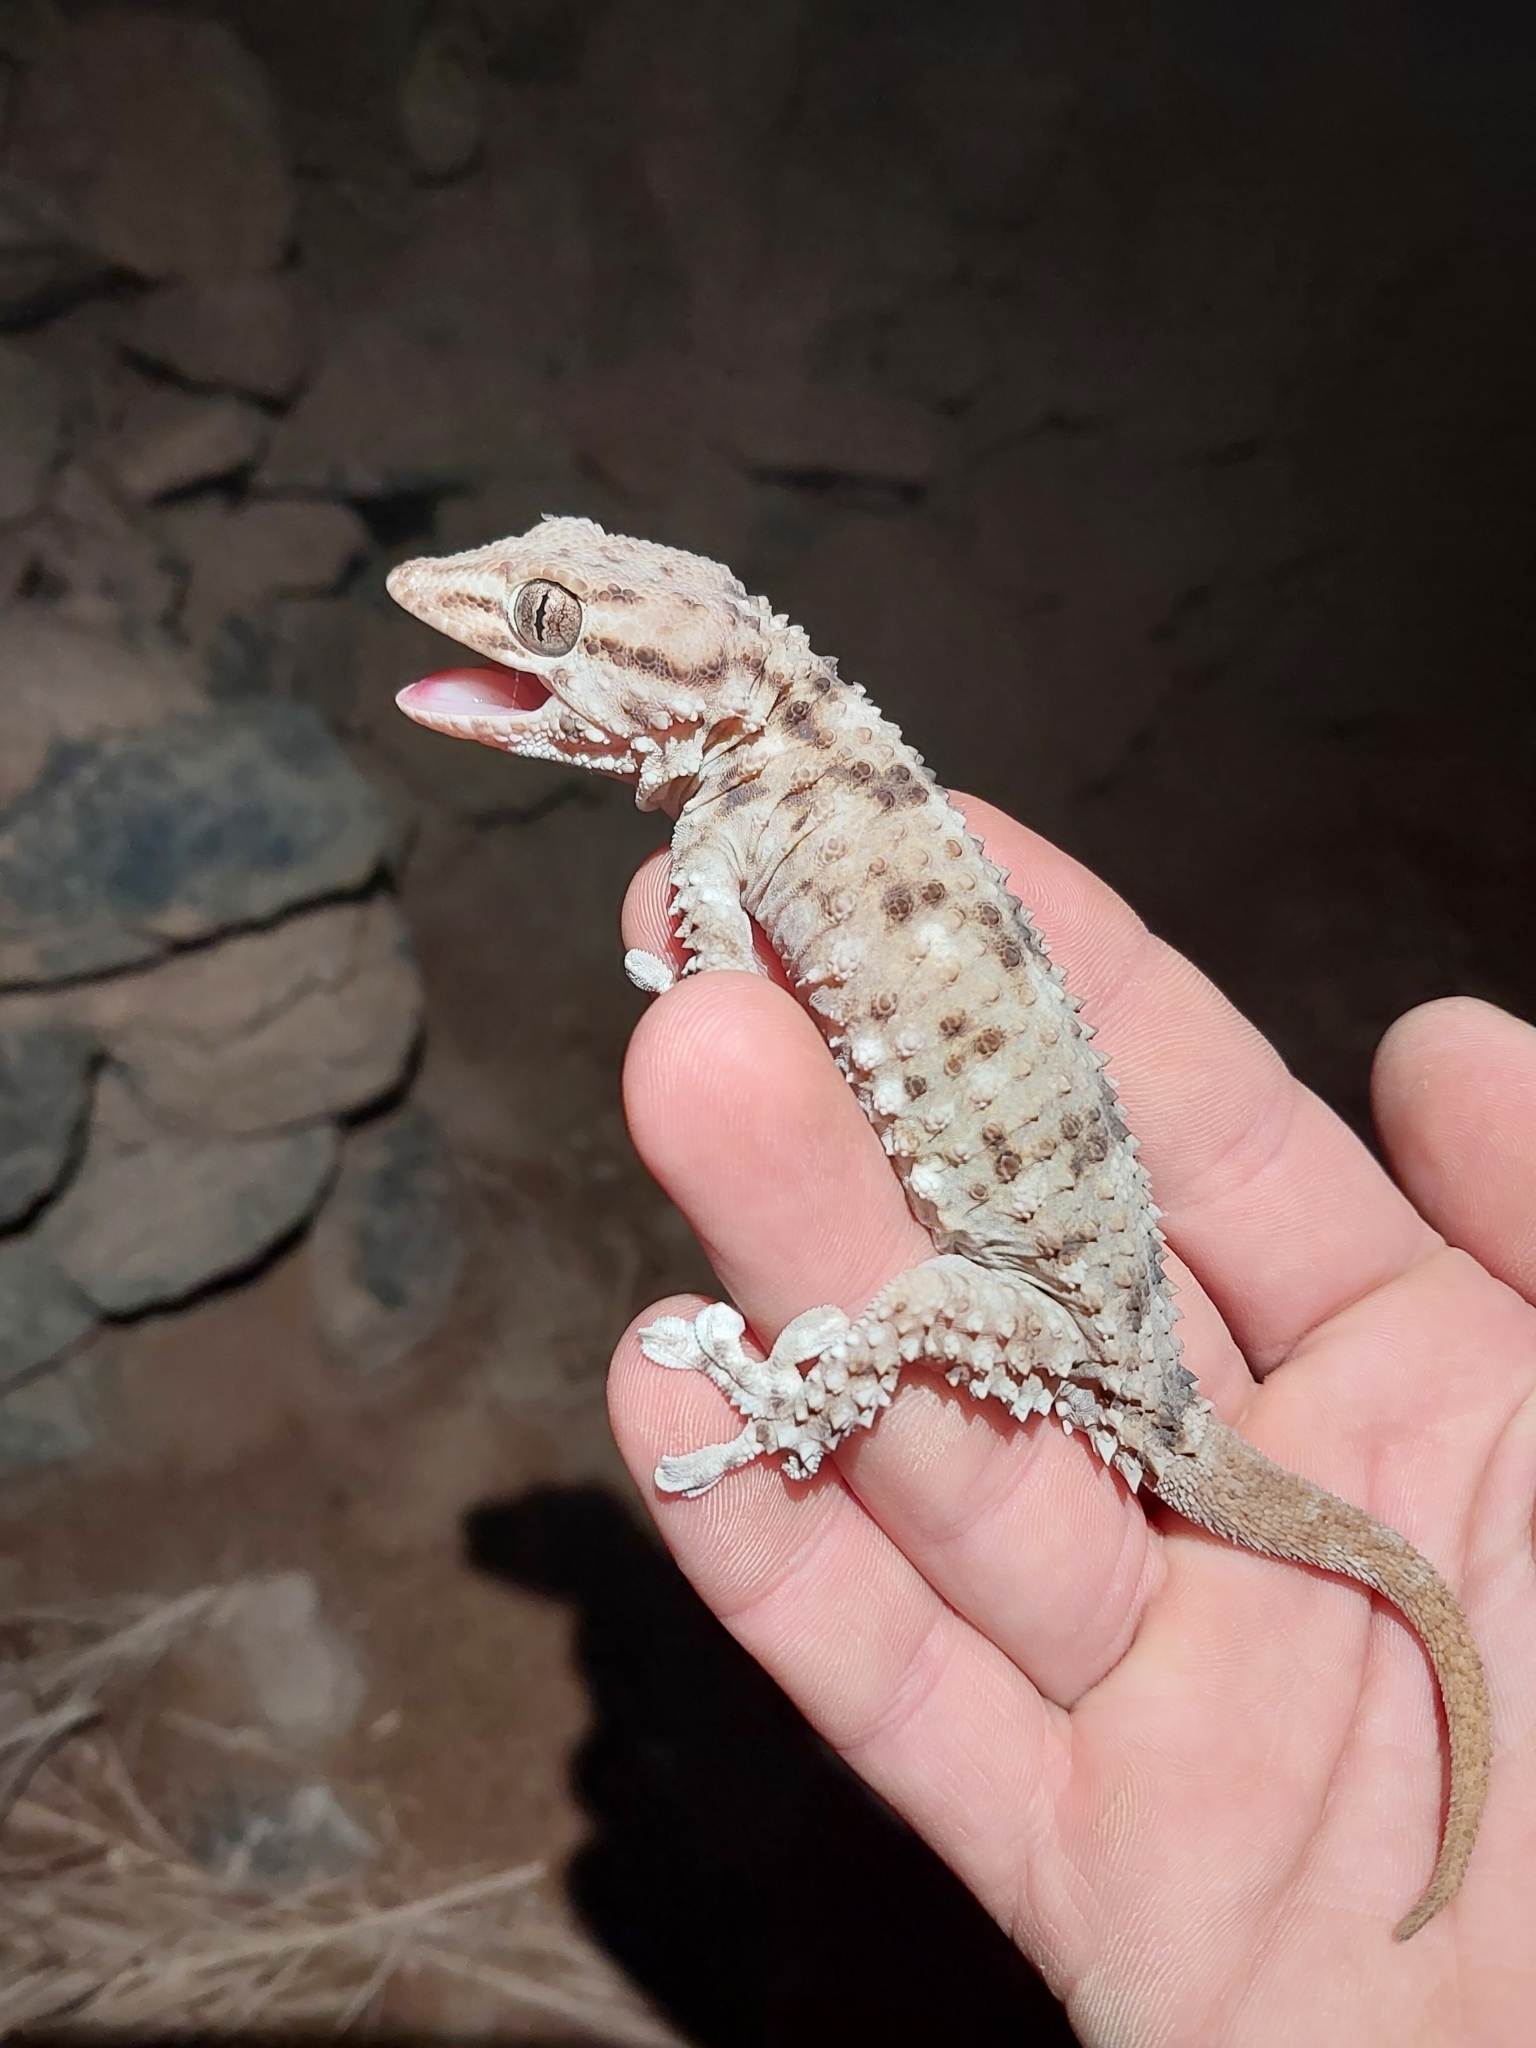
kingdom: Animalia
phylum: Chordata
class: Squamata
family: Phyllodactylidae
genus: Tarentola
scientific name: Tarentola deserti
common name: Desert wall gecko
